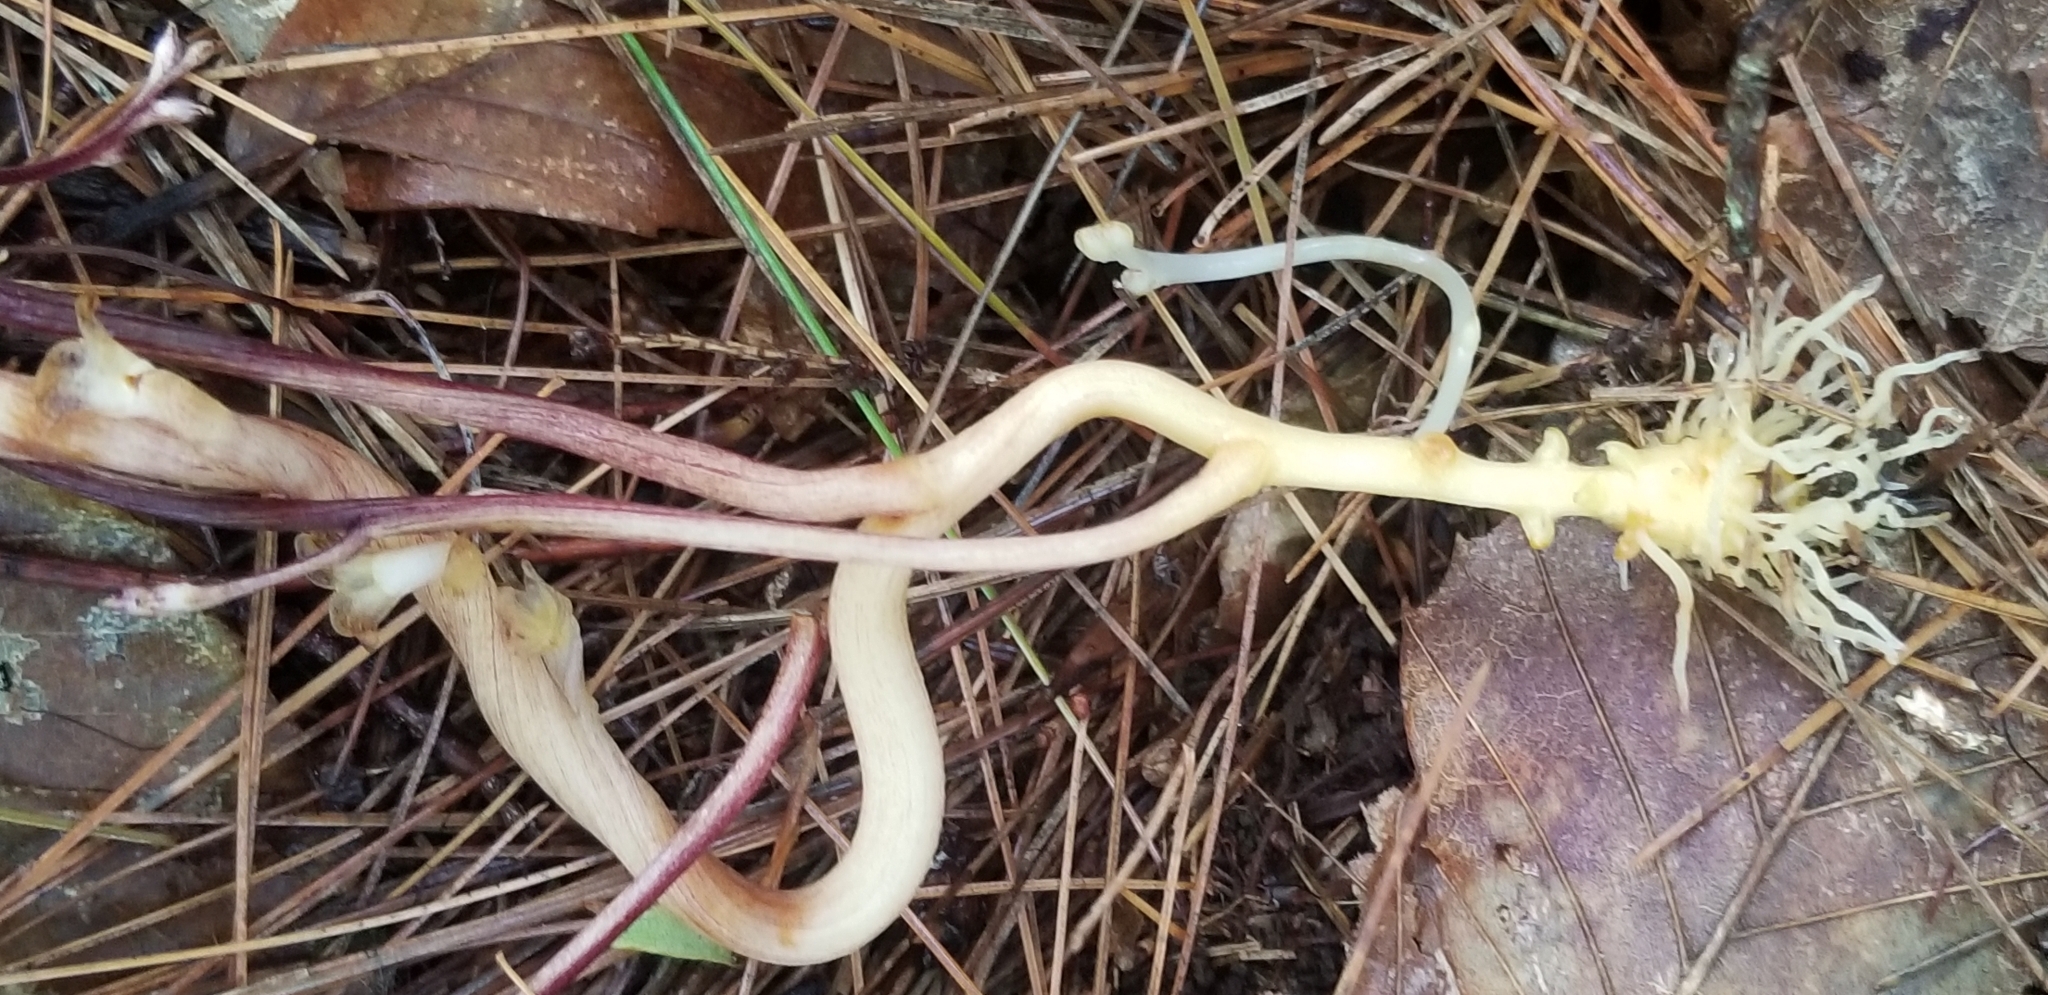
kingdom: Plantae
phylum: Tracheophyta
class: Magnoliopsida
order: Lamiales
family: Orobanchaceae
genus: Epifagus
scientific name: Epifagus virginiana
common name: Beechdrops
